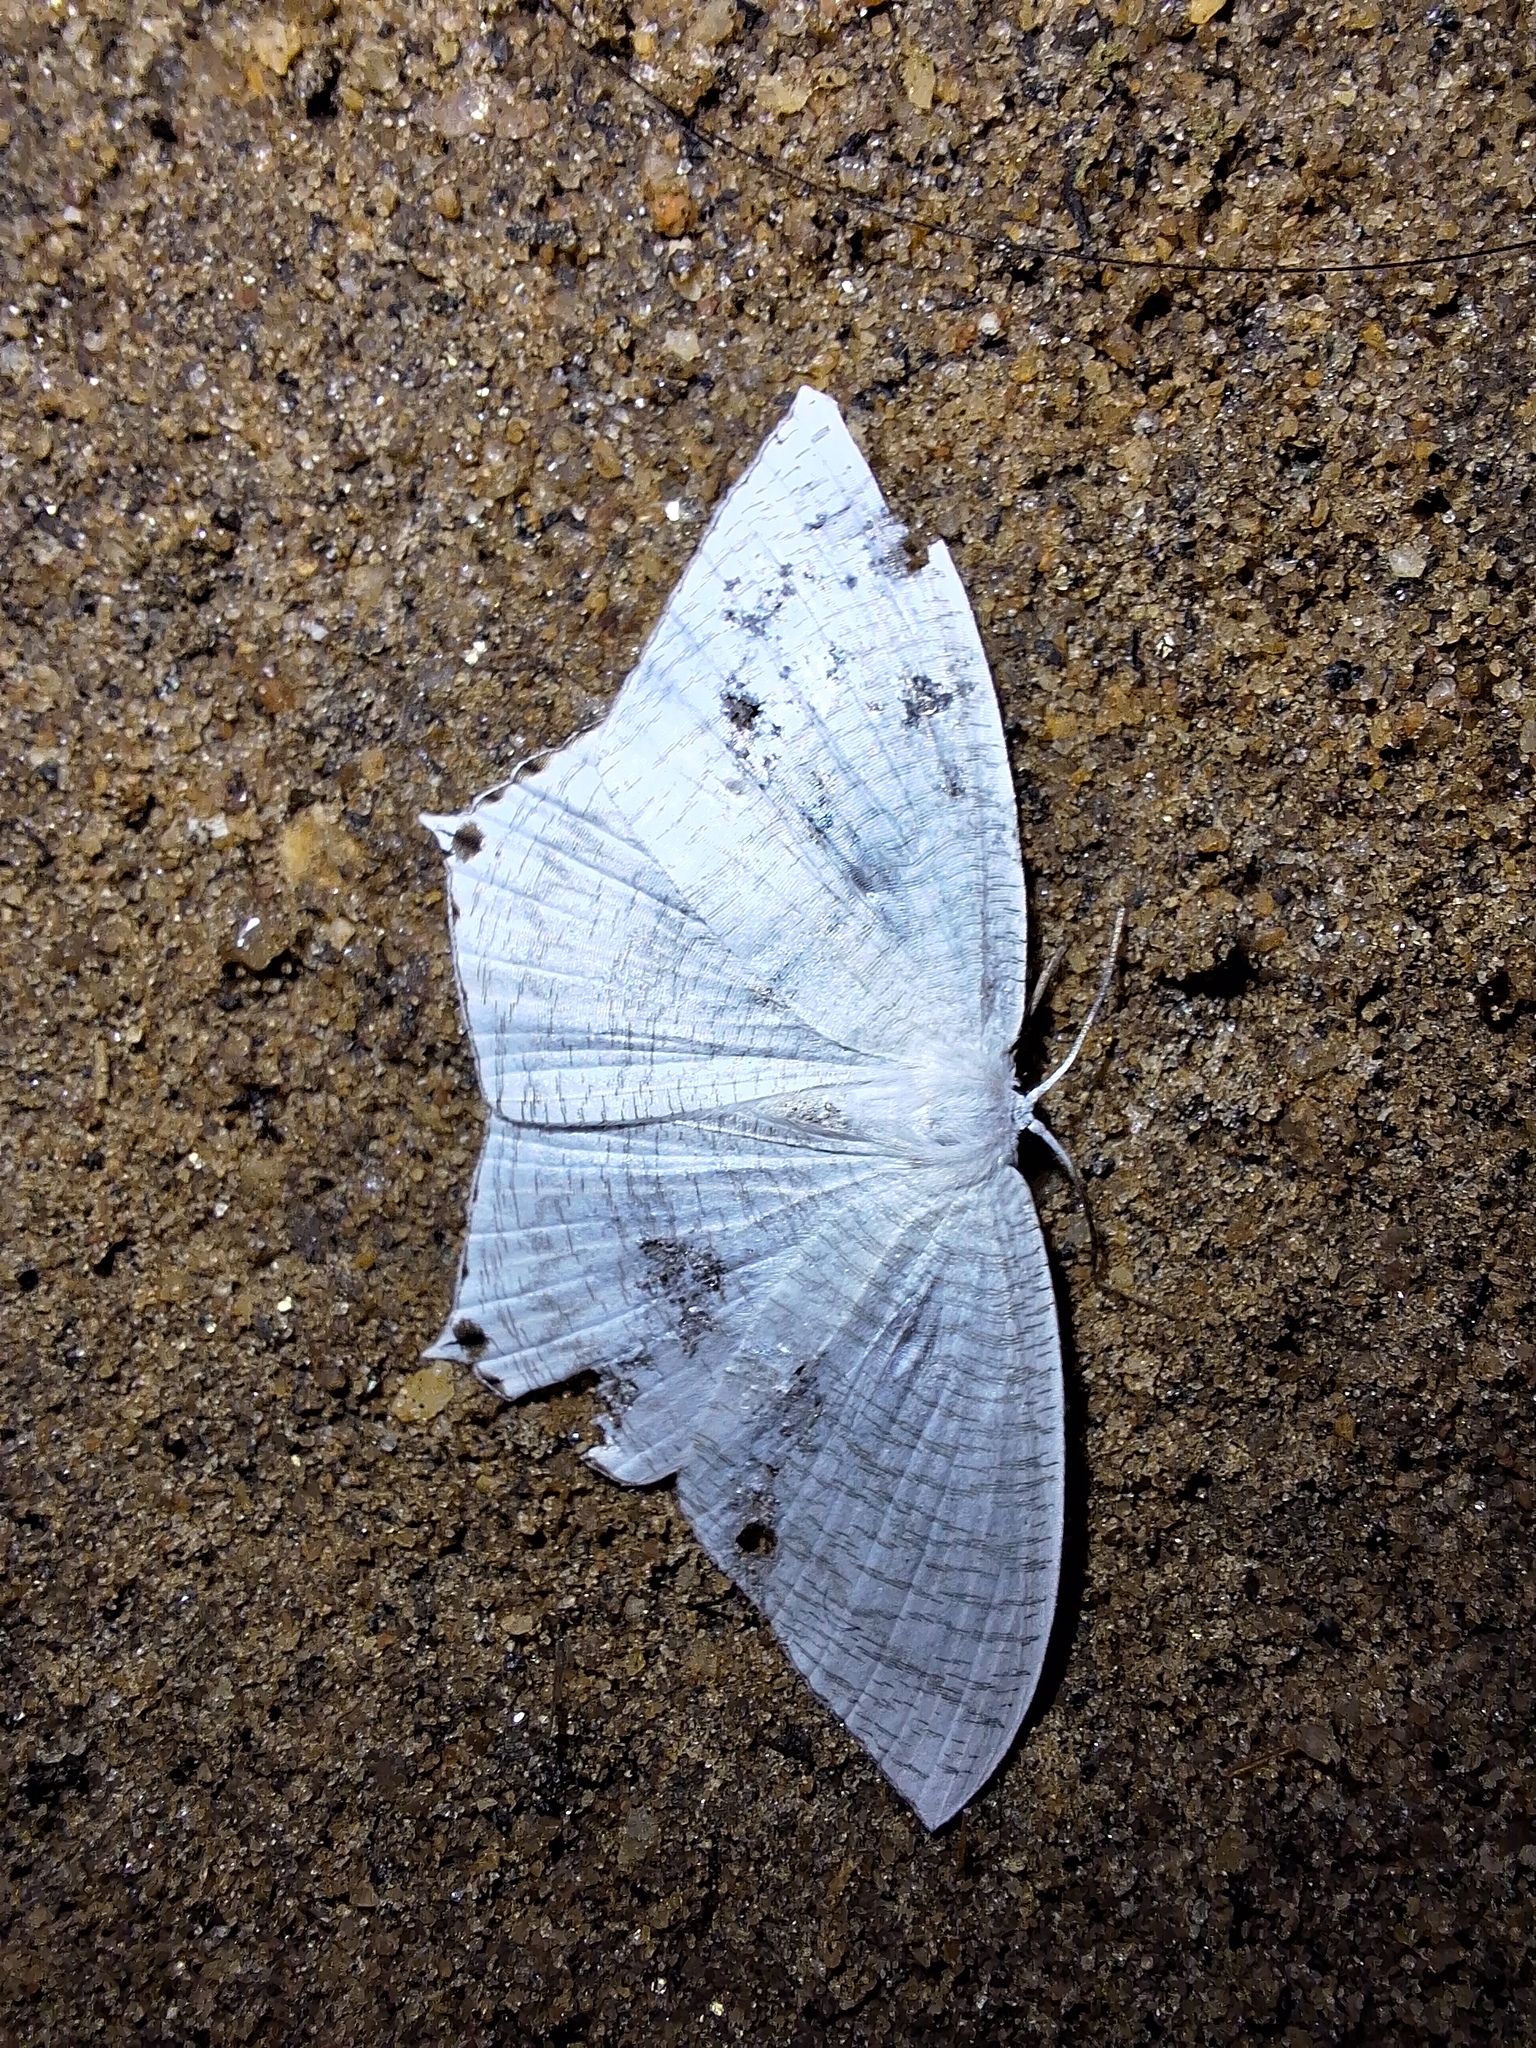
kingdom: Animalia
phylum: Arthropoda
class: Insecta
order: Lepidoptera
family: Uraniidae
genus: Micronia
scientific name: Micronia aculeata
